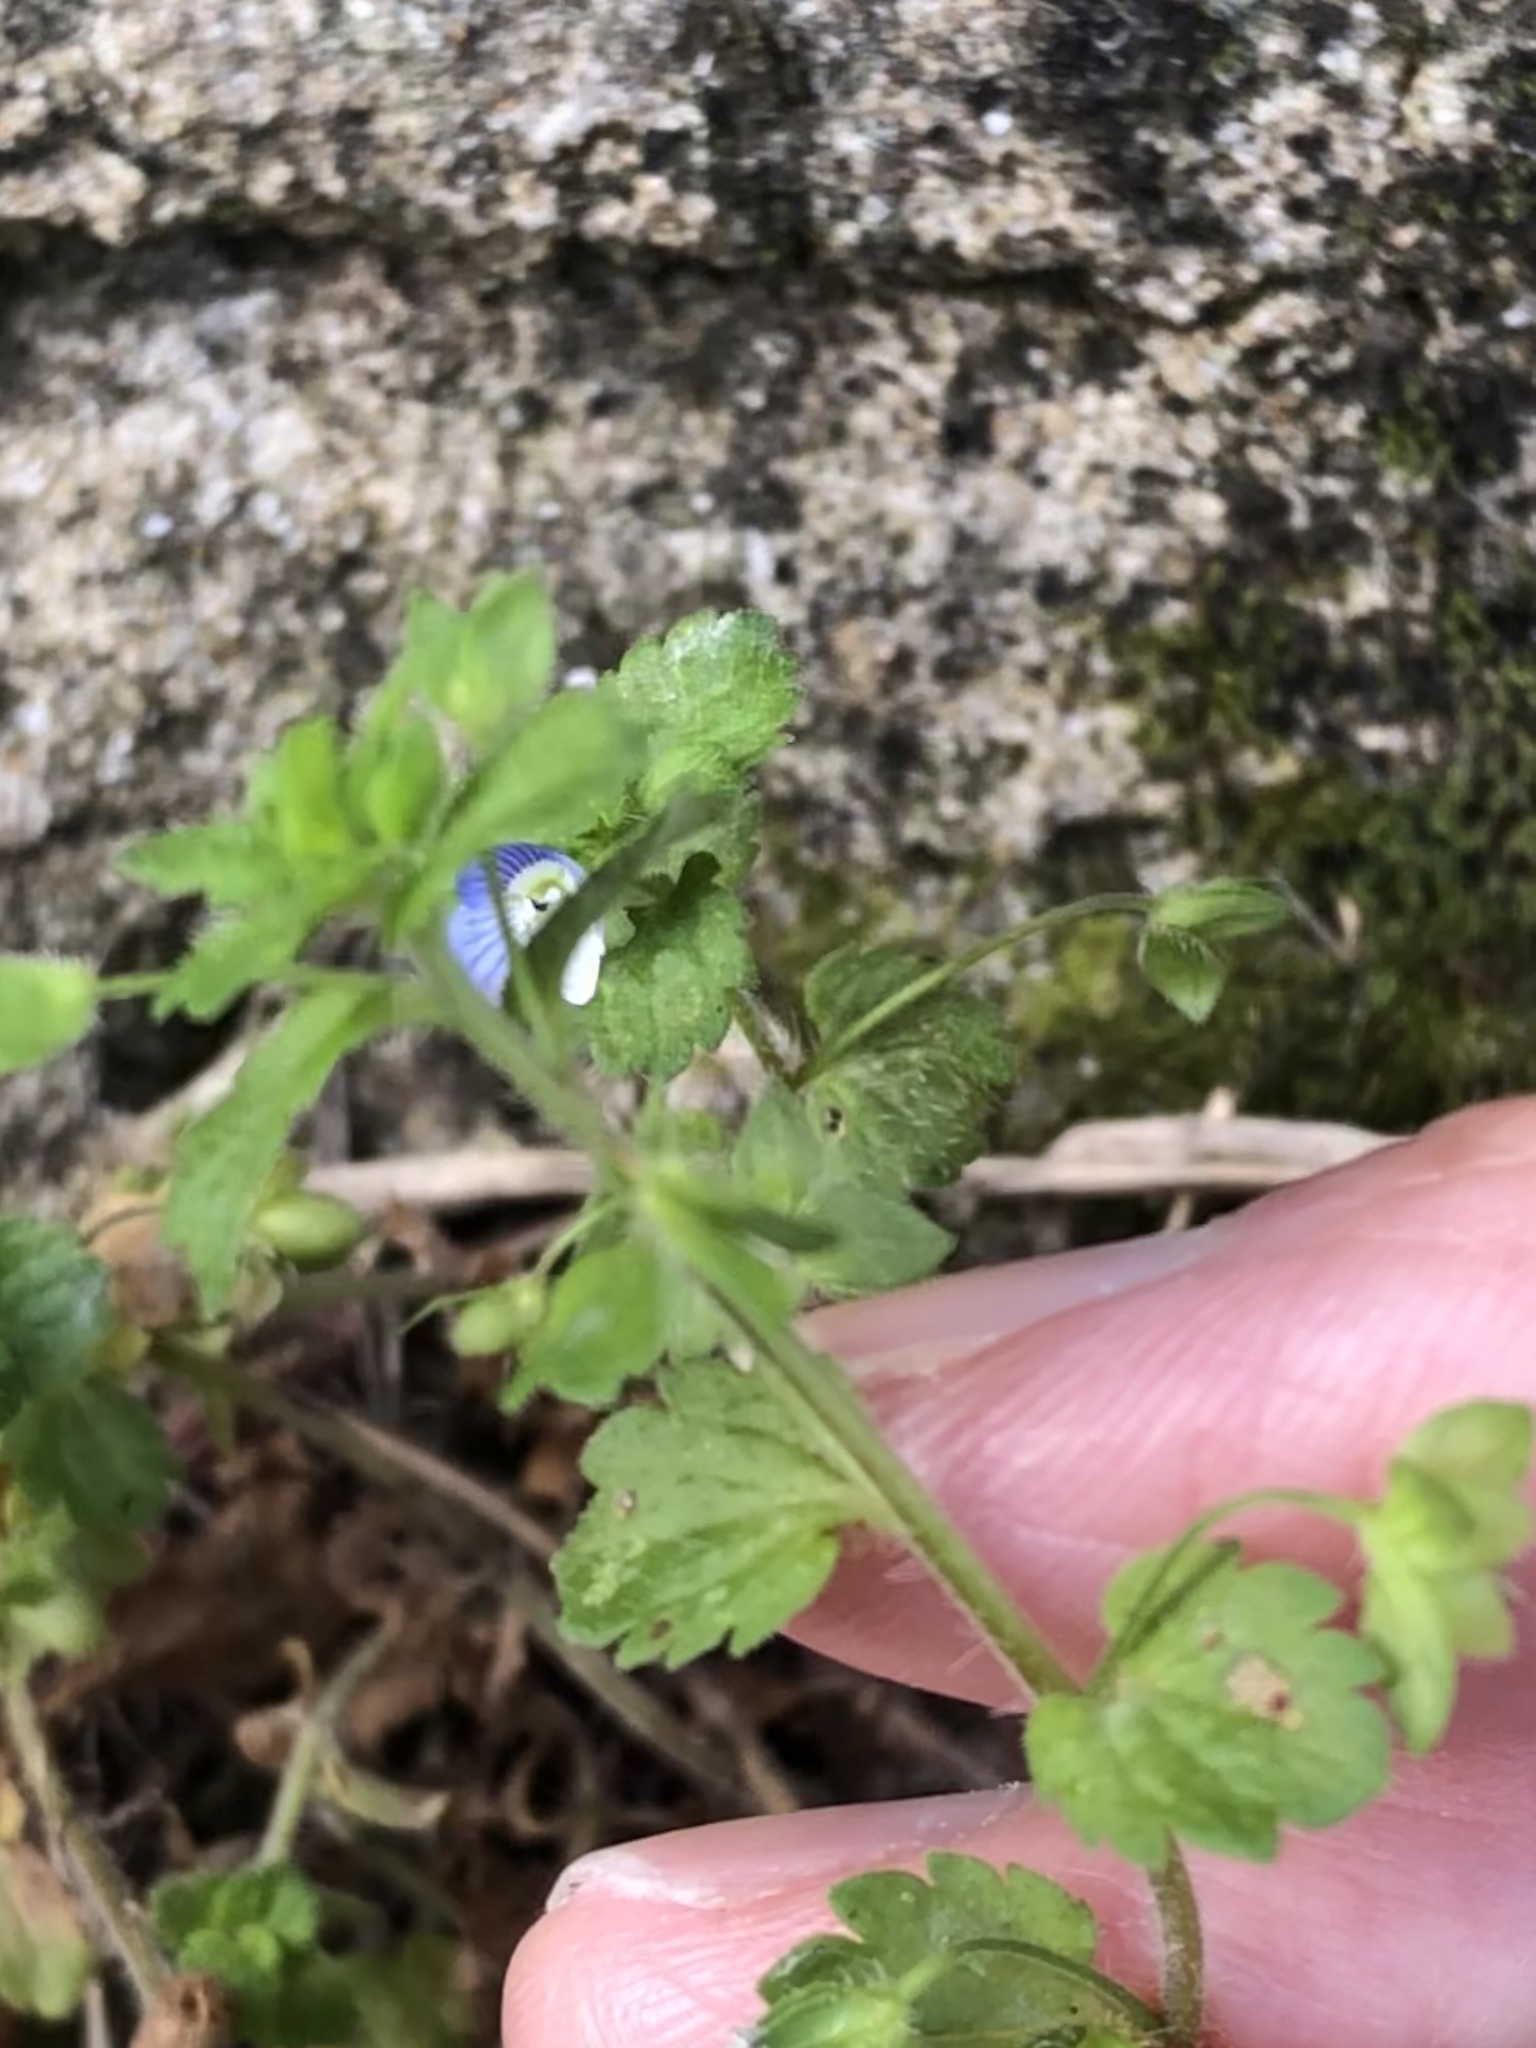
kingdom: Plantae
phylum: Tracheophyta
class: Magnoliopsida
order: Lamiales
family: Plantaginaceae
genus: Veronica
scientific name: Veronica persica
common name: Common field-speedwell
